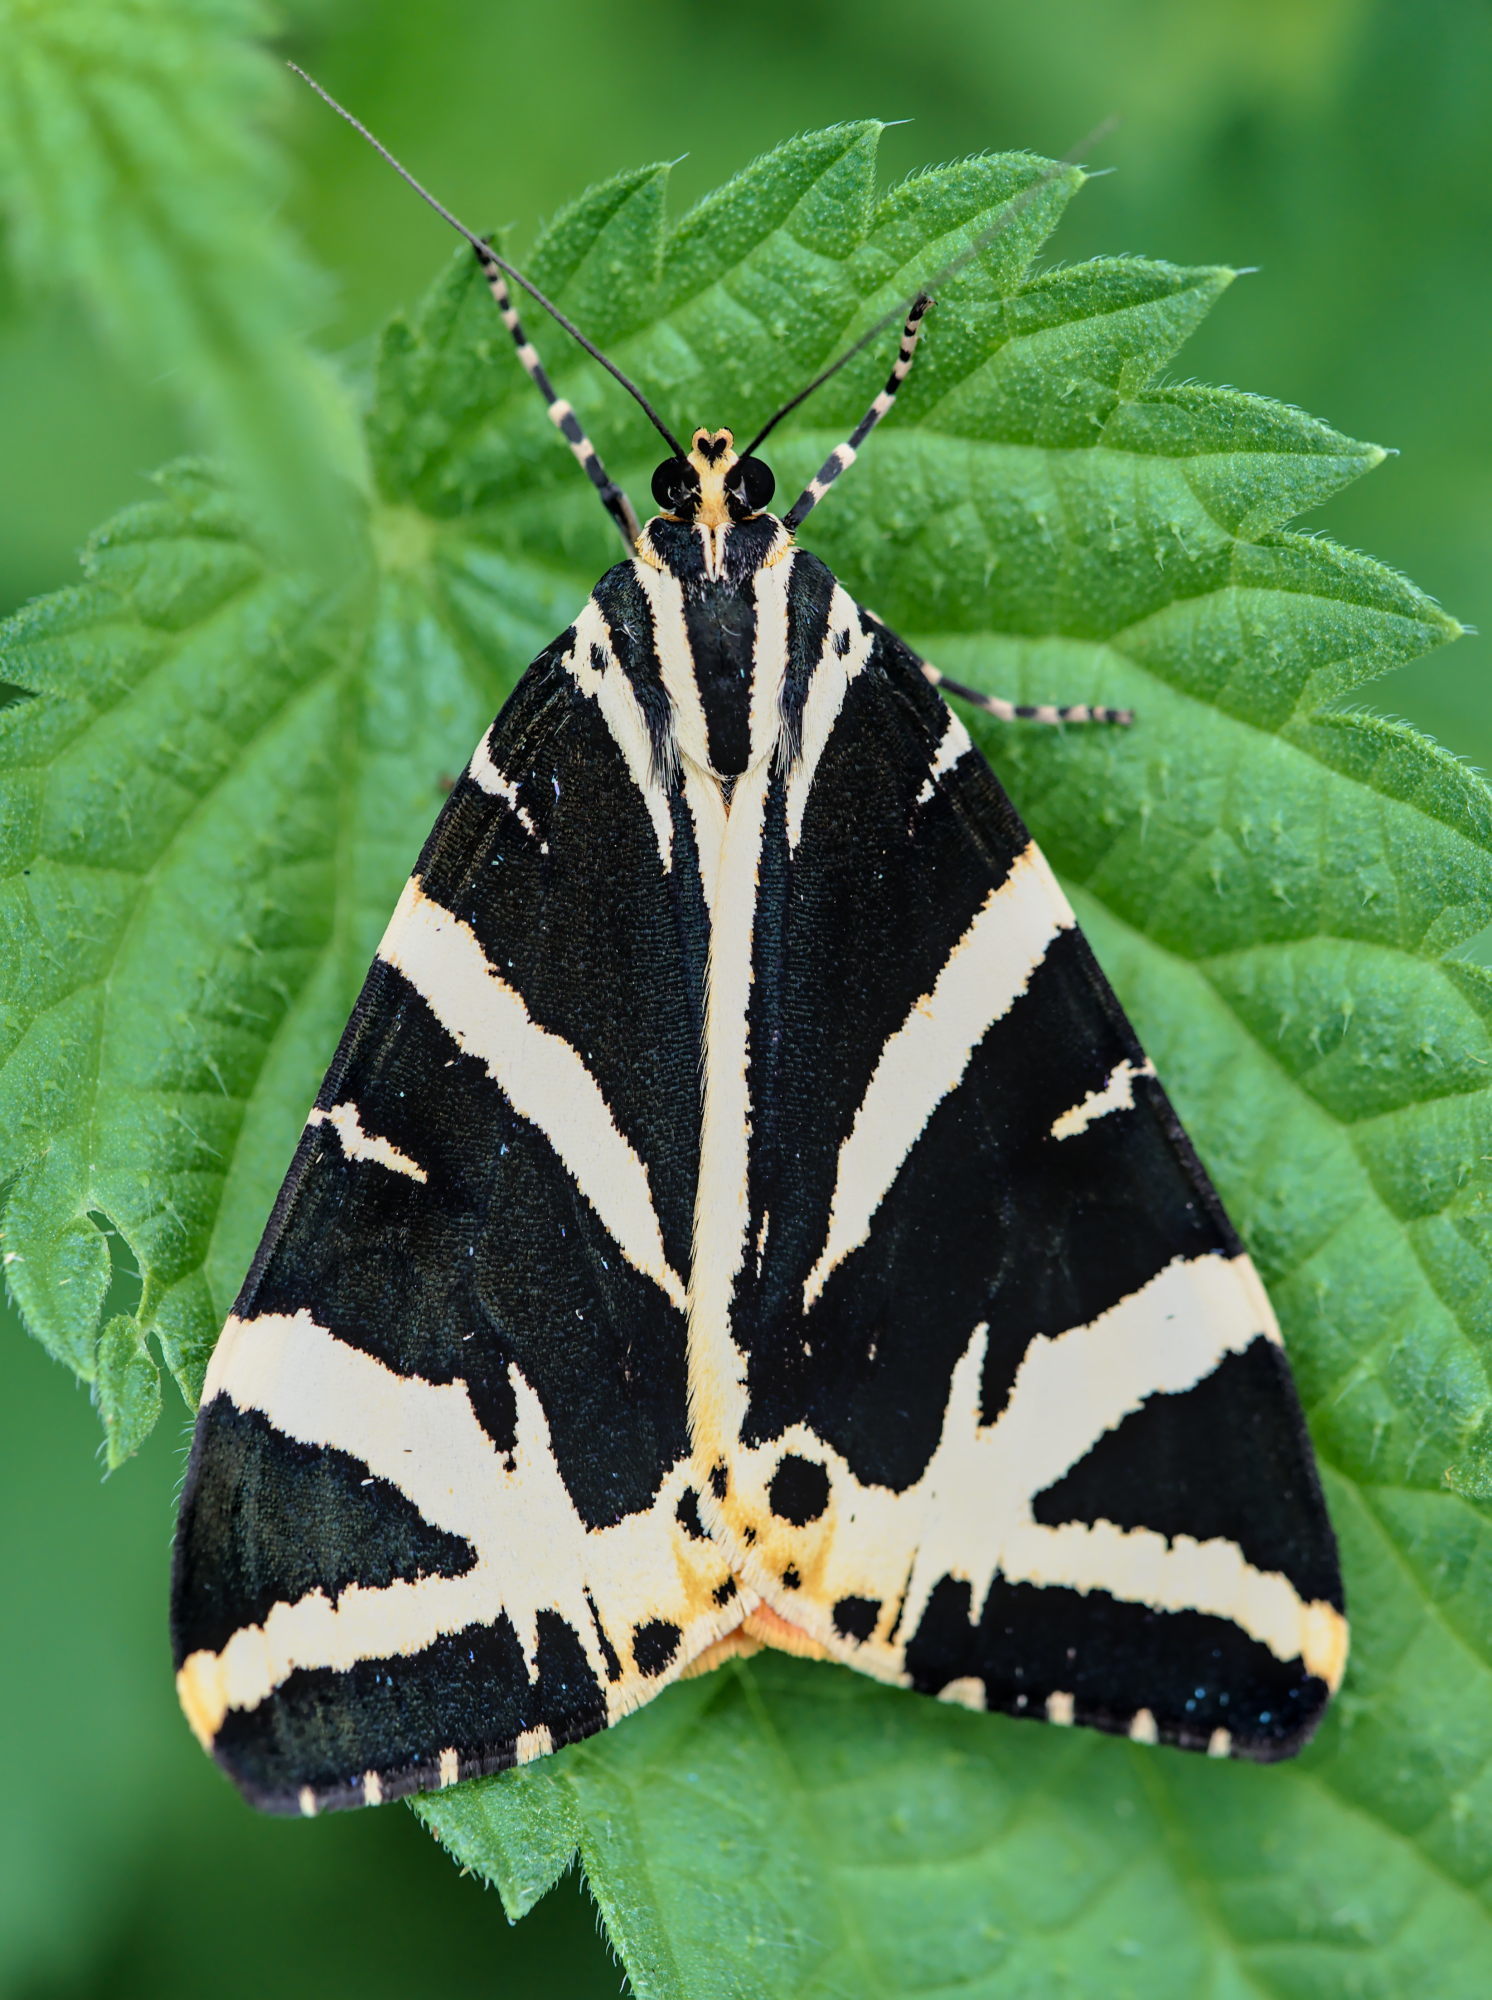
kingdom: Animalia
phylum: Arthropoda
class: Insecta
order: Lepidoptera
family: Erebidae
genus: Euplagia
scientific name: Euplagia quadripunctaria
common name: Jersey tiger
